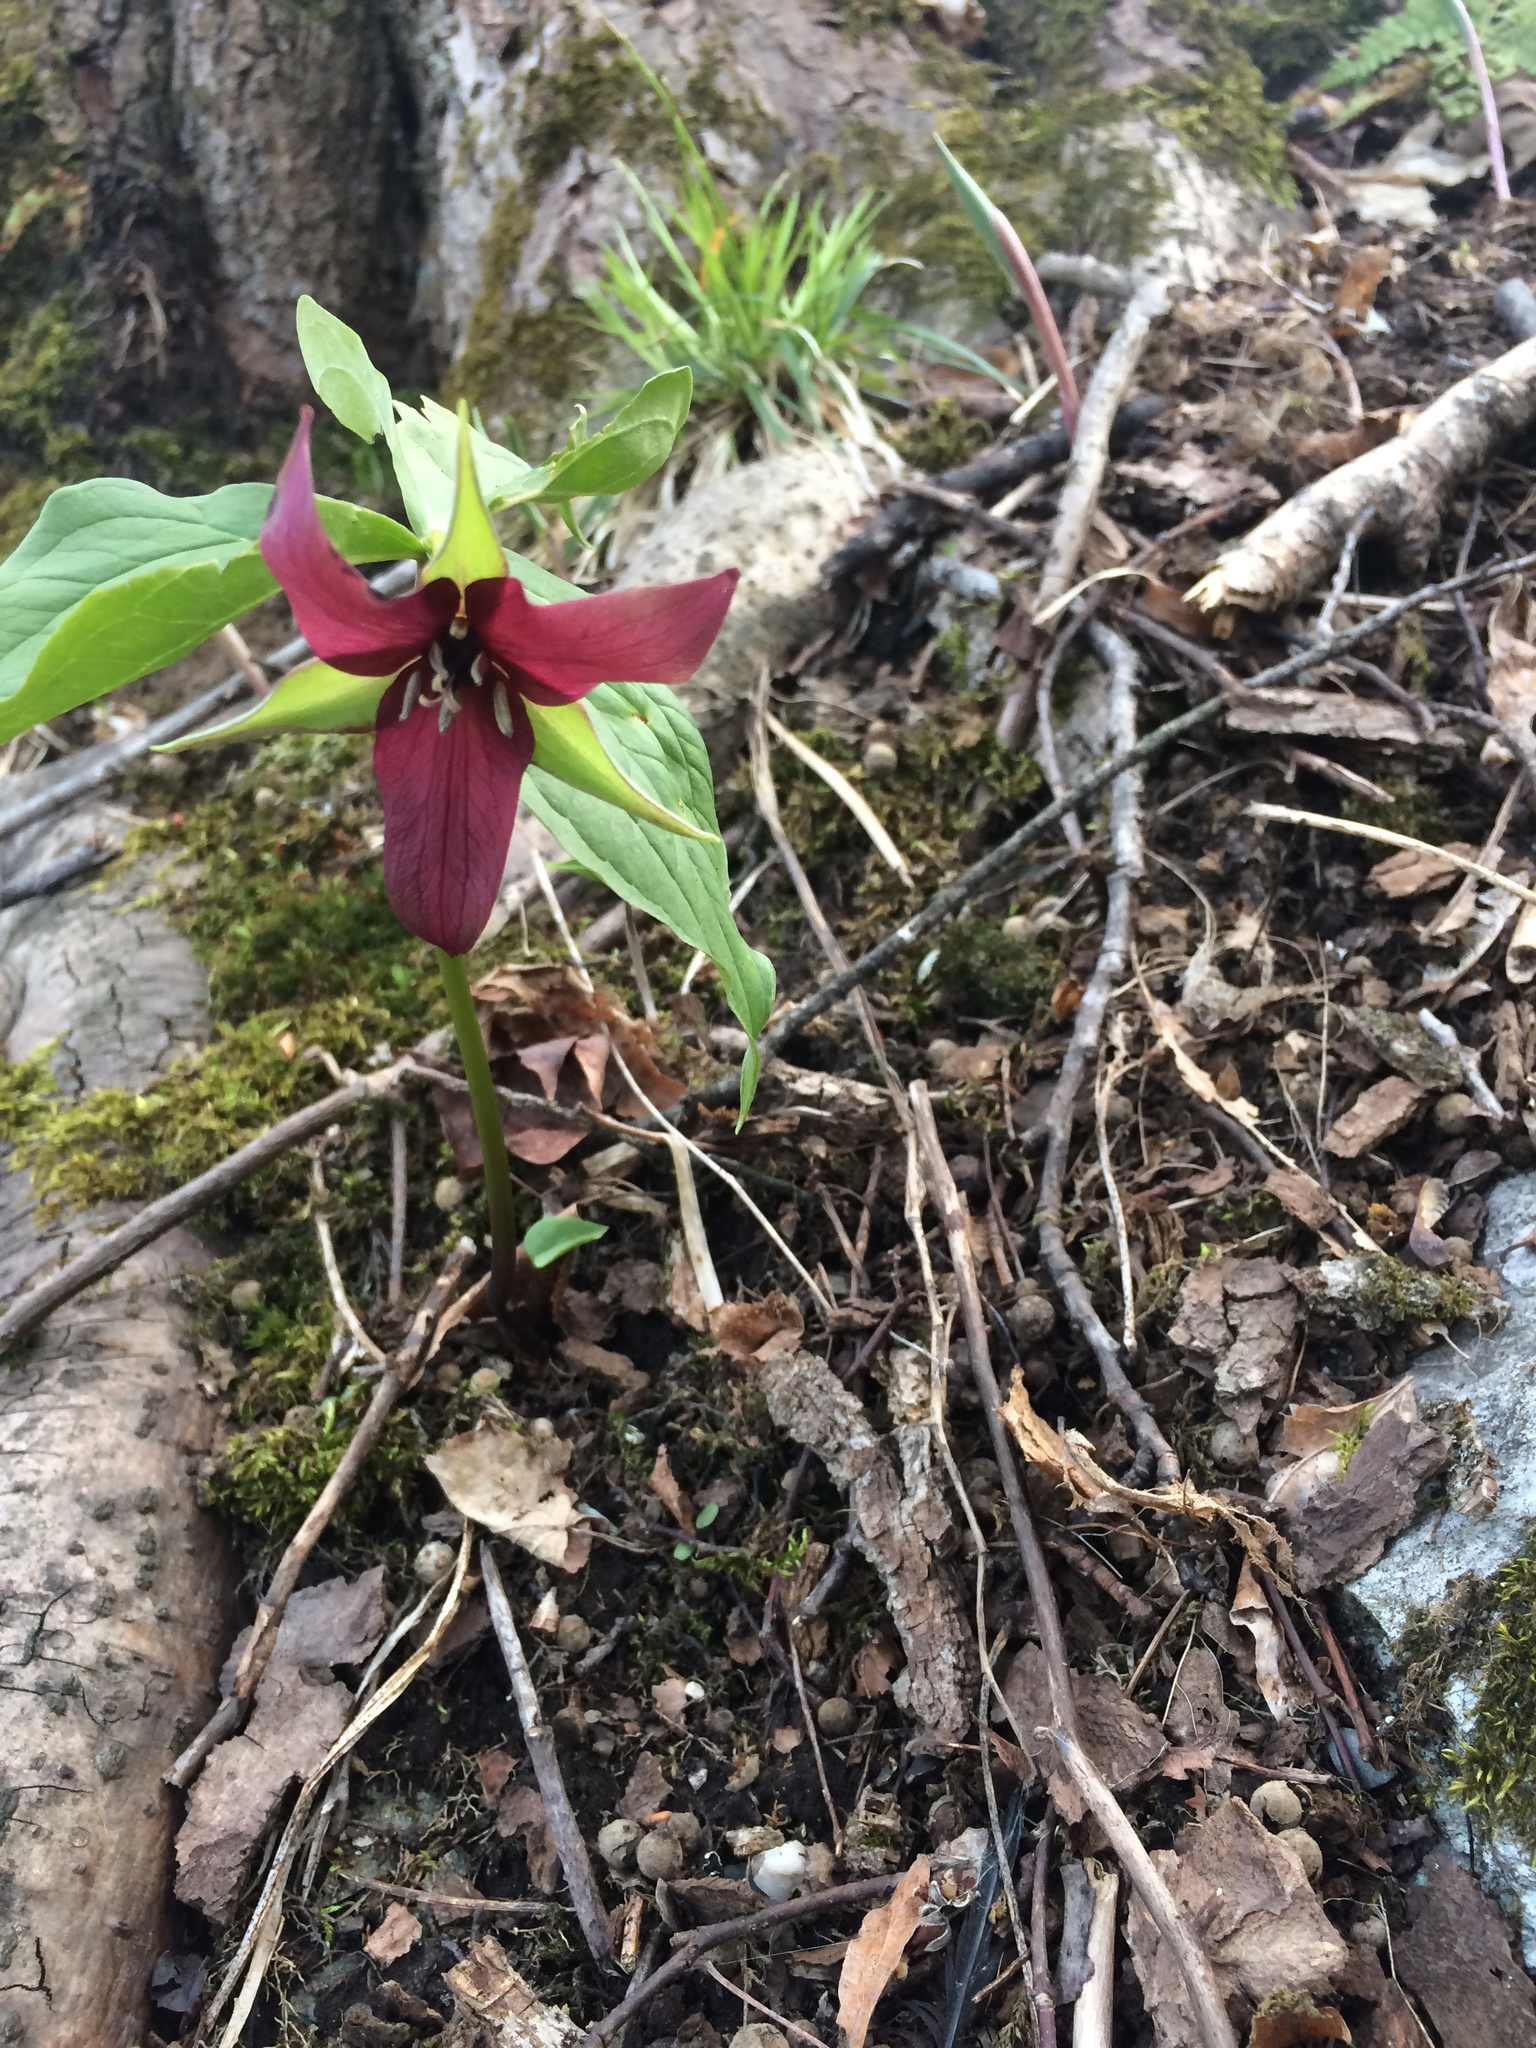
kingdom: Plantae
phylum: Tracheophyta
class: Liliopsida
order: Liliales
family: Melanthiaceae
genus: Trillium
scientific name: Trillium erectum
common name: Purple trillium
